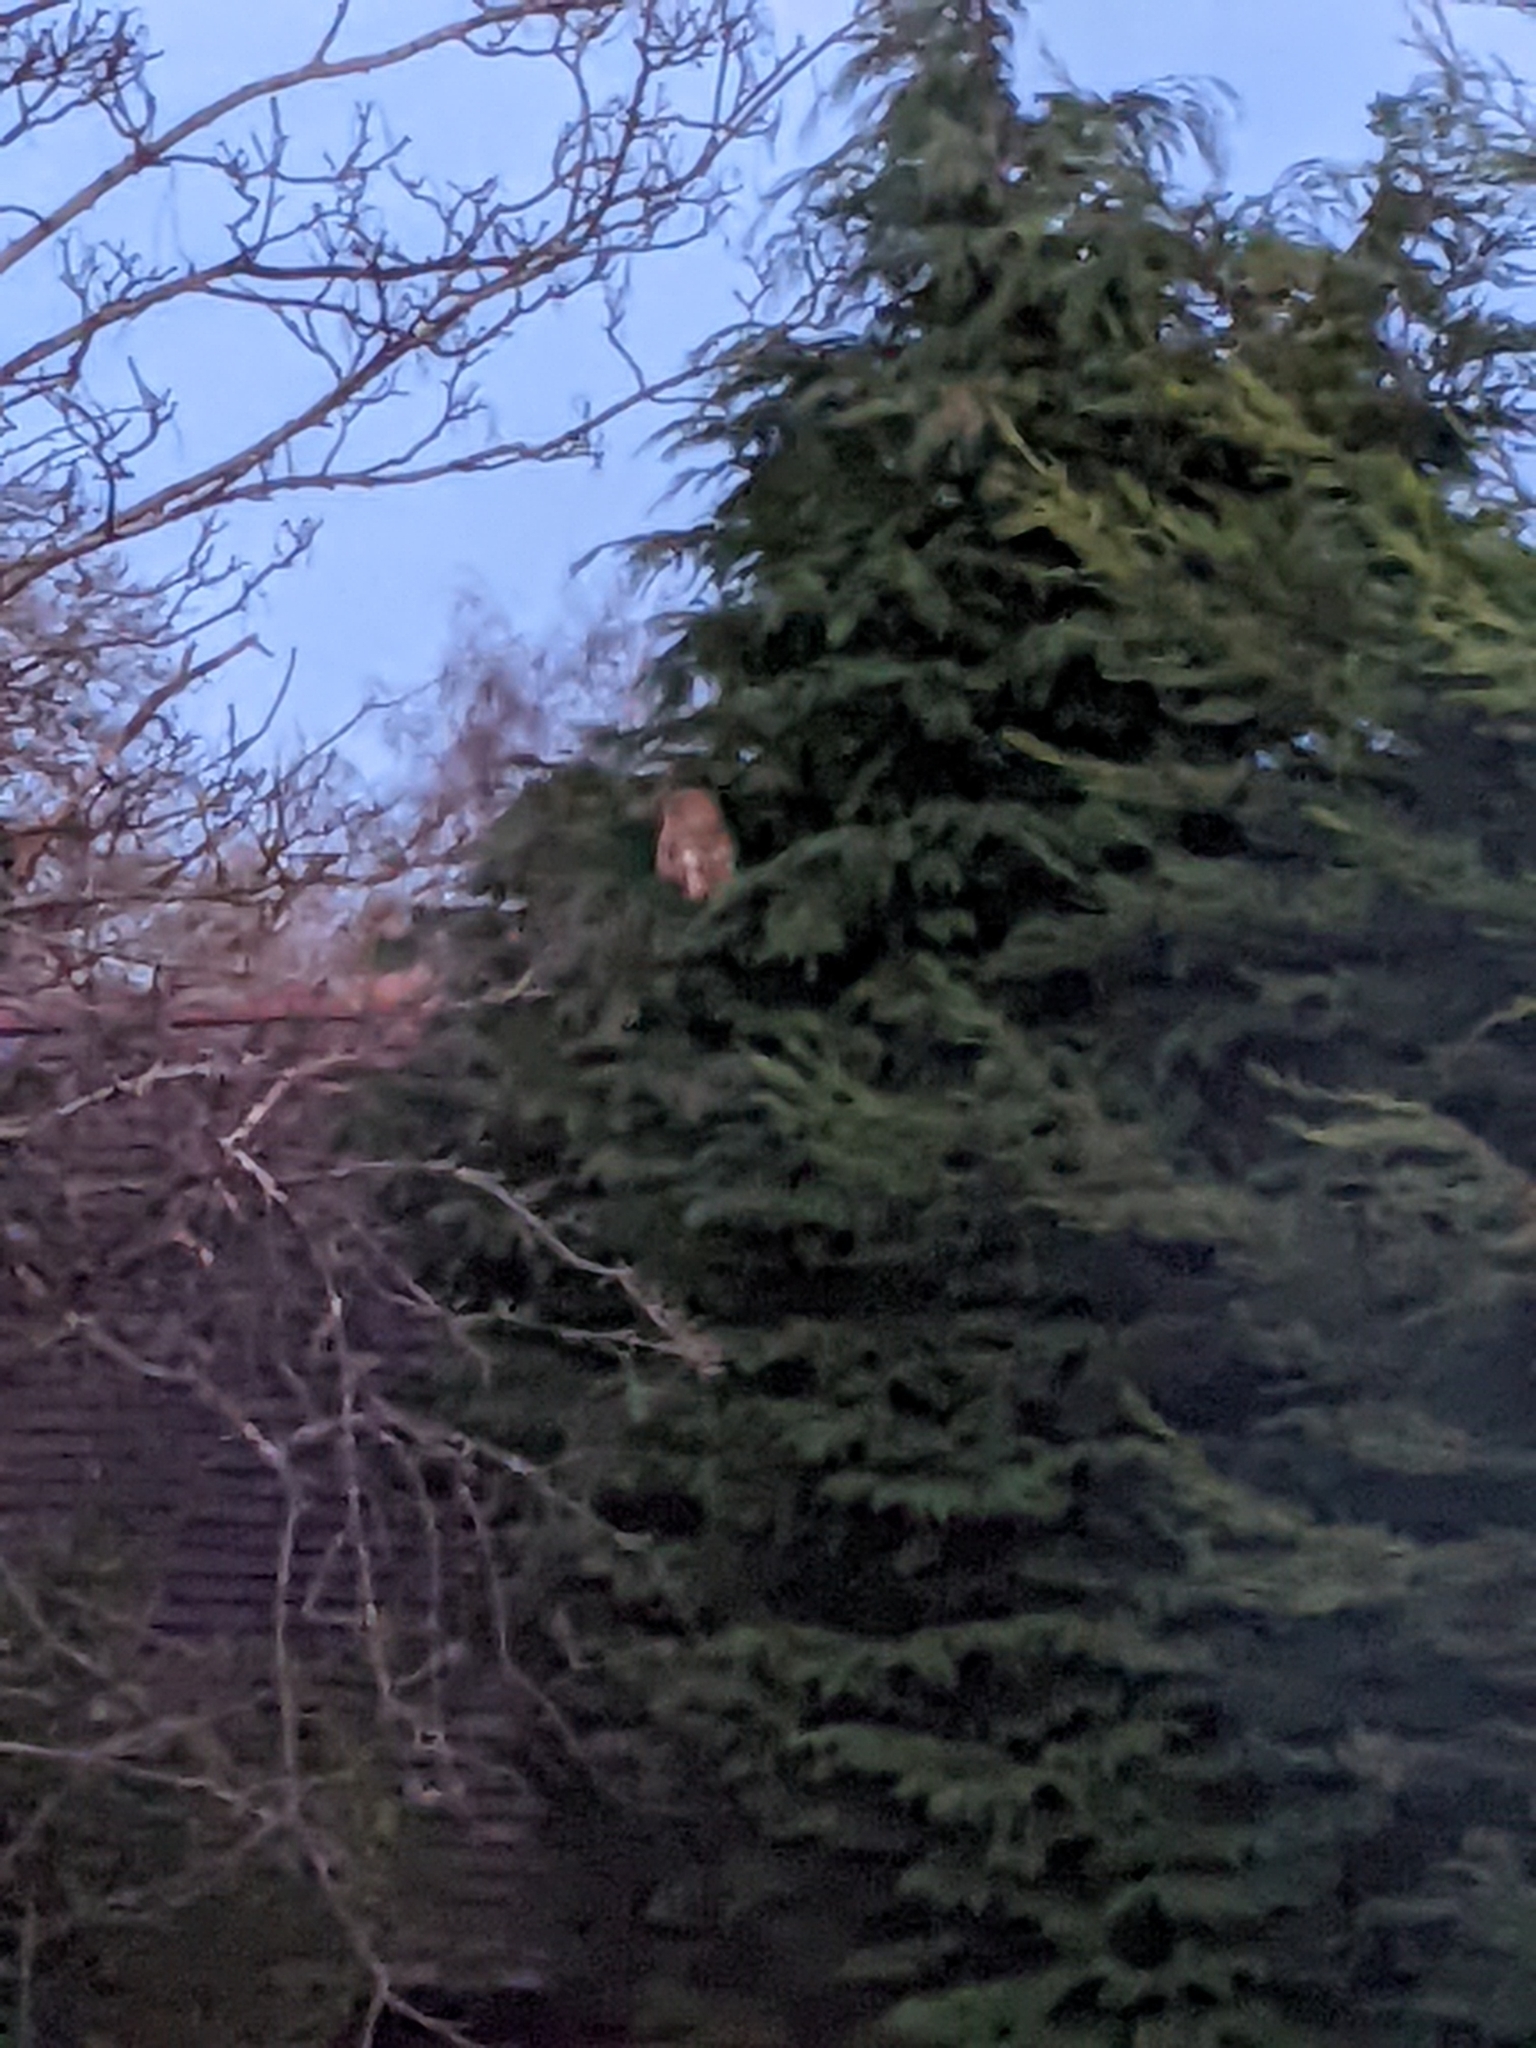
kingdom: Animalia
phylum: Chordata
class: Aves
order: Strigiformes
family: Strigidae
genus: Strix
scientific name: Strix aluco
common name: Tawny owl
